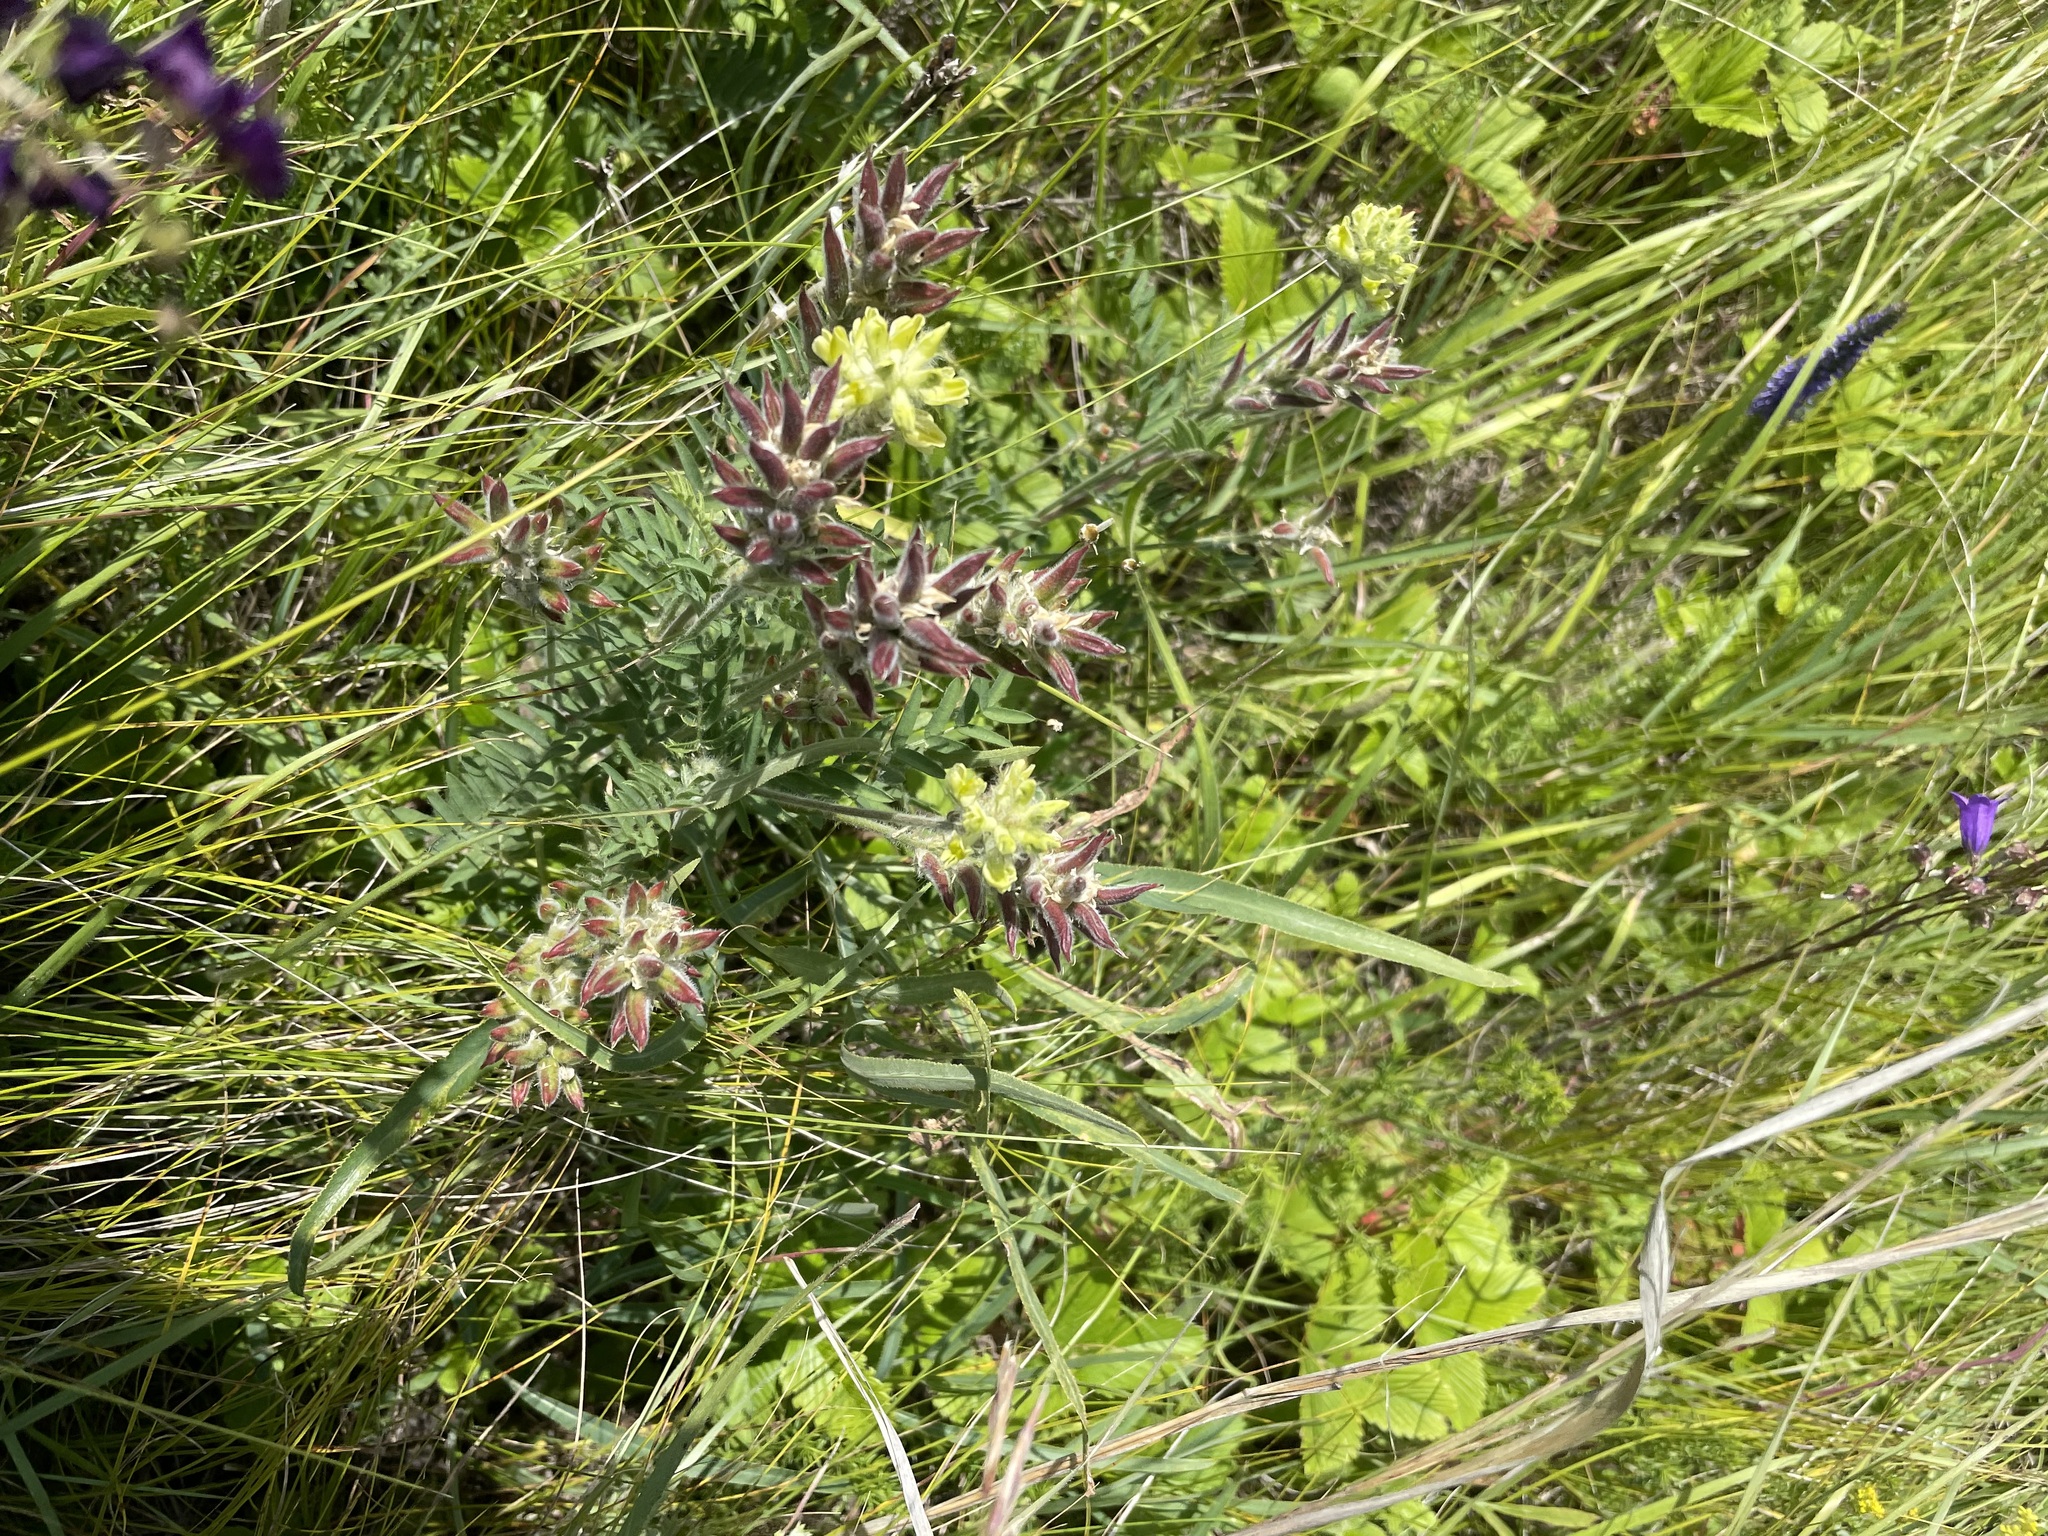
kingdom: Plantae
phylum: Tracheophyta
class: Magnoliopsida
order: Fabales
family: Fabaceae
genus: Oxytropis
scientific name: Oxytropis pilosa
